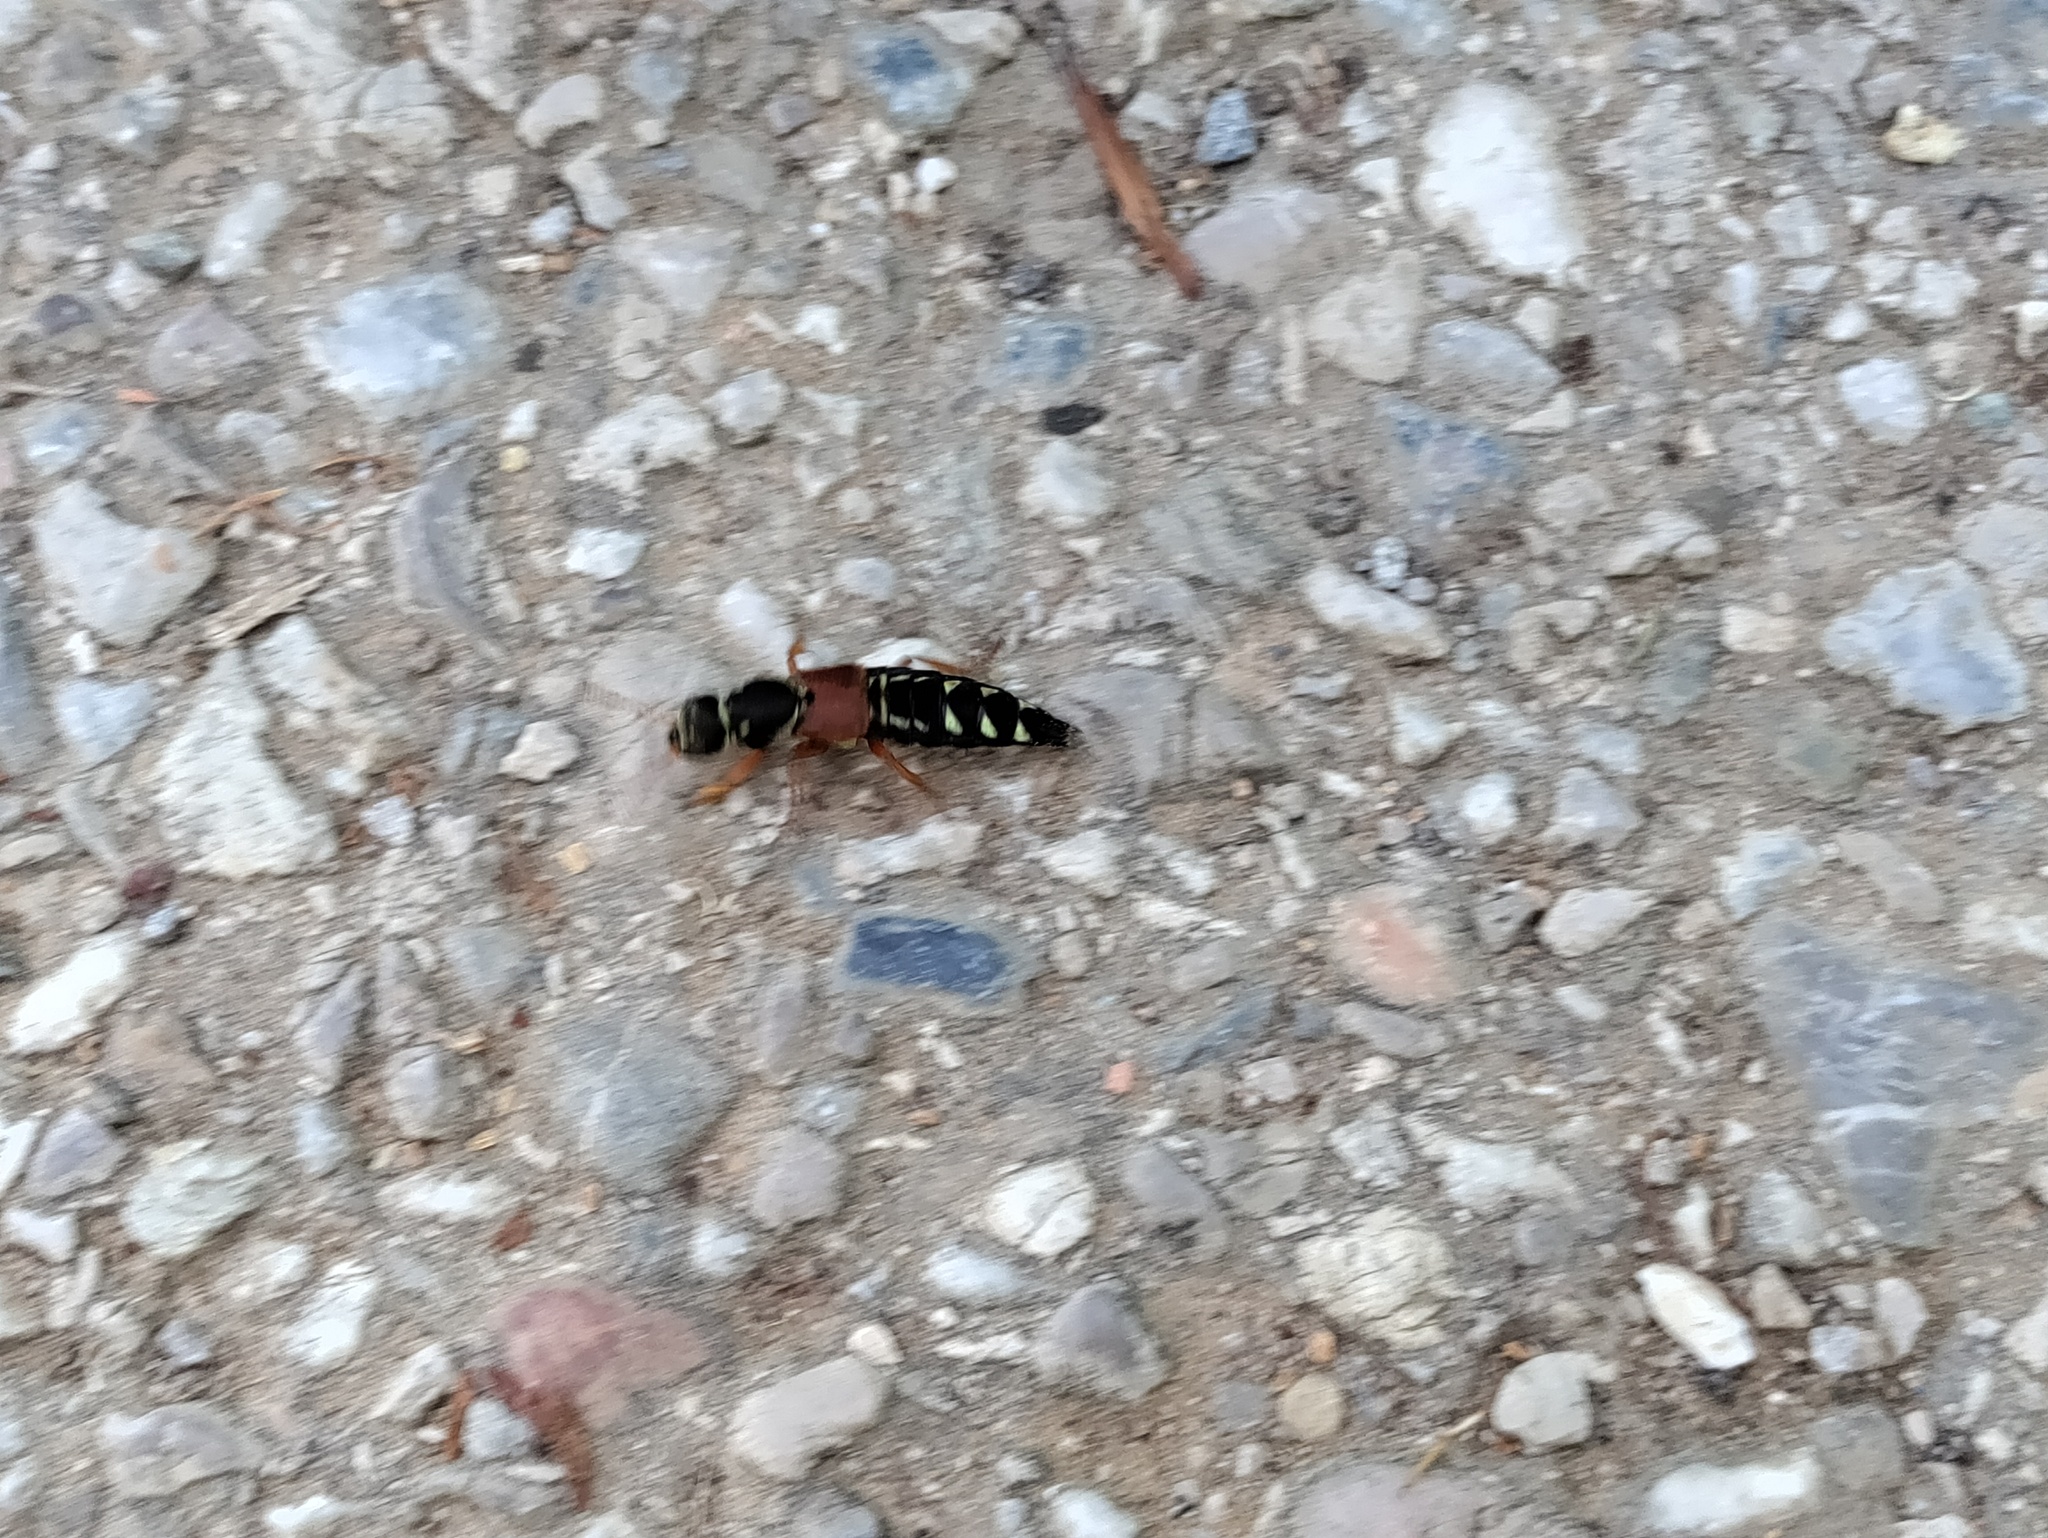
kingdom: Animalia
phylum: Arthropoda
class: Insecta
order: Coleoptera
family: Staphylinidae
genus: Staphylinus
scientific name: Staphylinus caesareus
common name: Staph beetle
